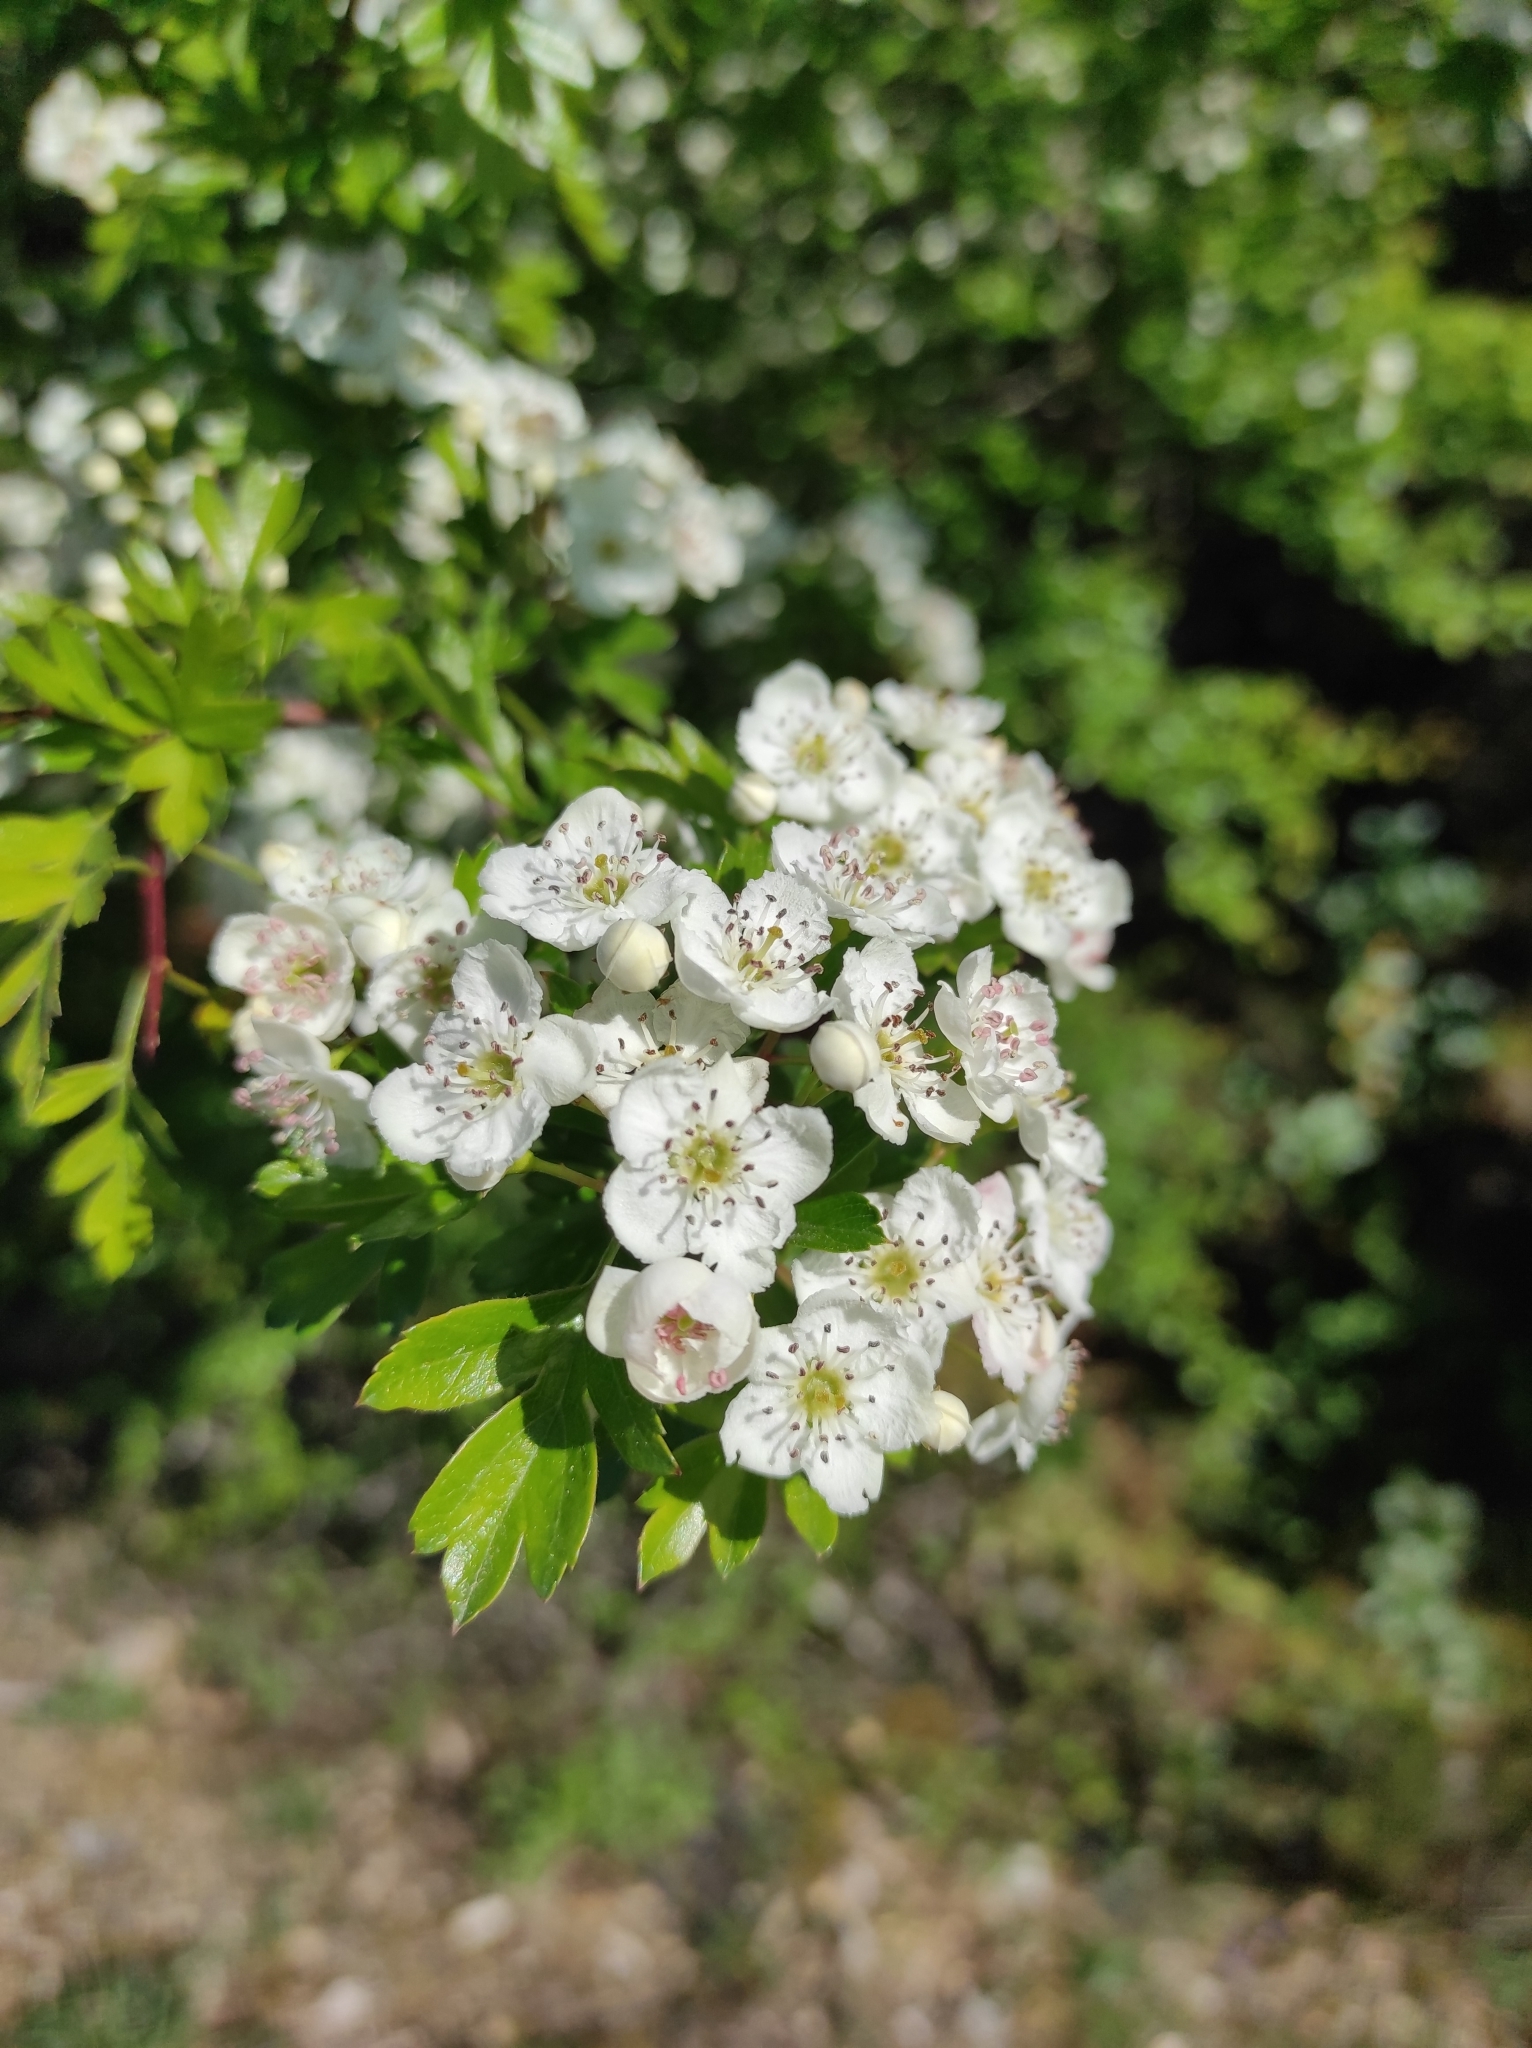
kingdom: Plantae
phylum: Tracheophyta
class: Magnoliopsida
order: Rosales
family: Rosaceae
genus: Crataegus
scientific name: Crataegus monogyna
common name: Hawthorn
